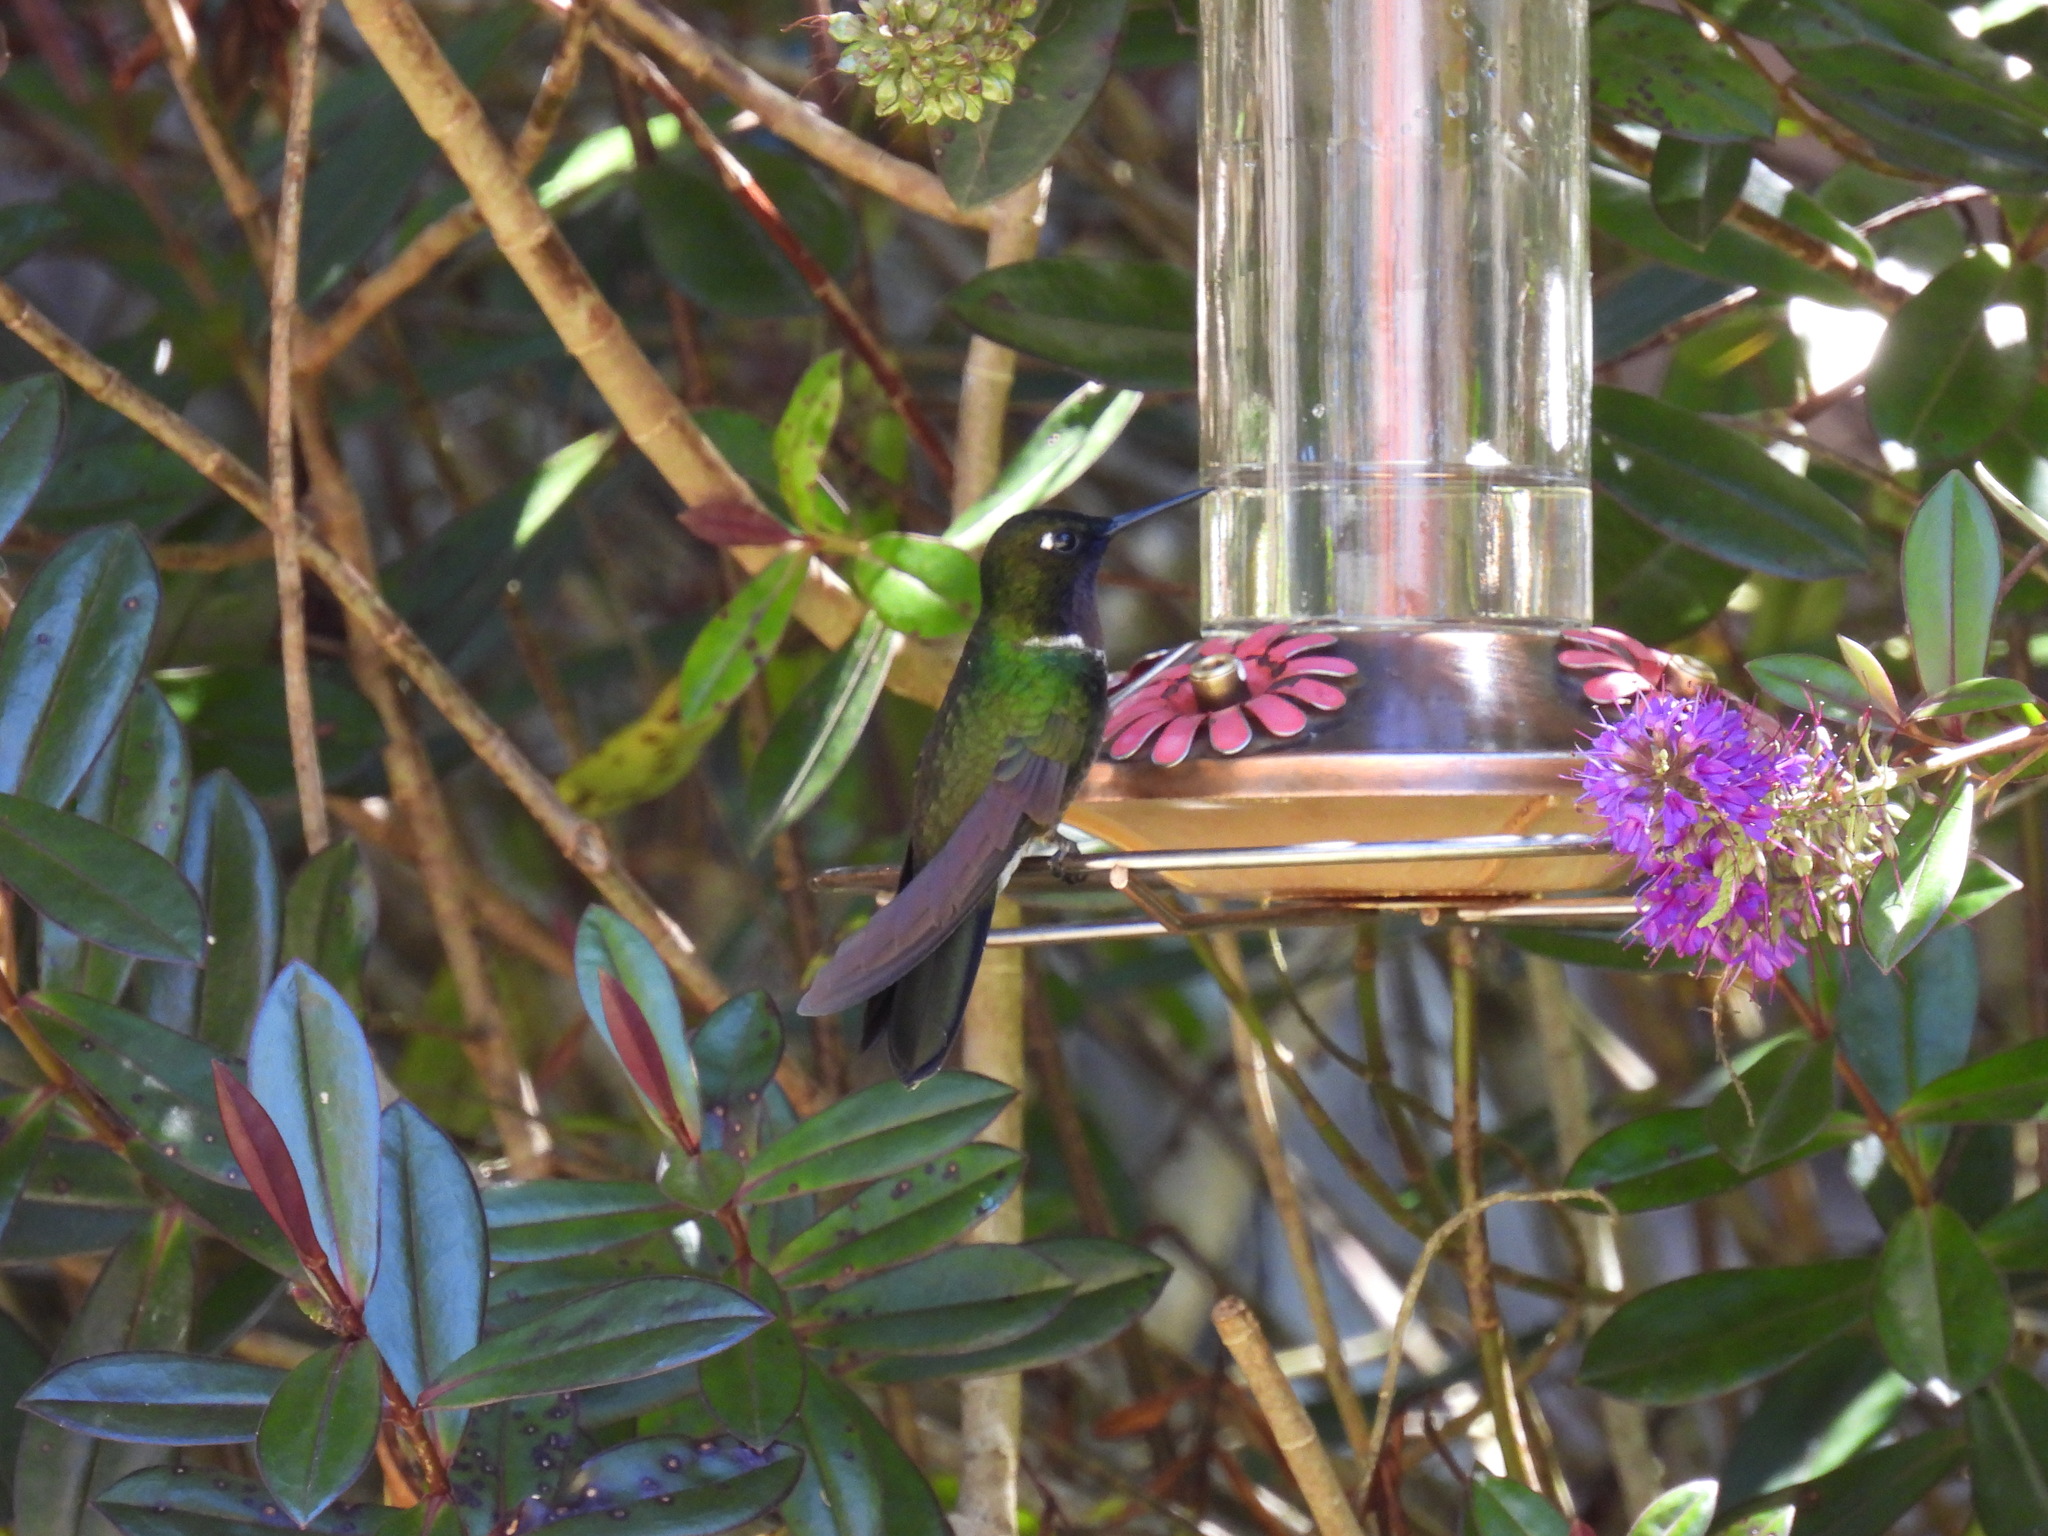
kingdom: Animalia
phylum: Chordata
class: Aves
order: Apodiformes
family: Trochilidae
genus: Heliangelus
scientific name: Heliangelus clarisse
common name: Longuemare's sunangel
